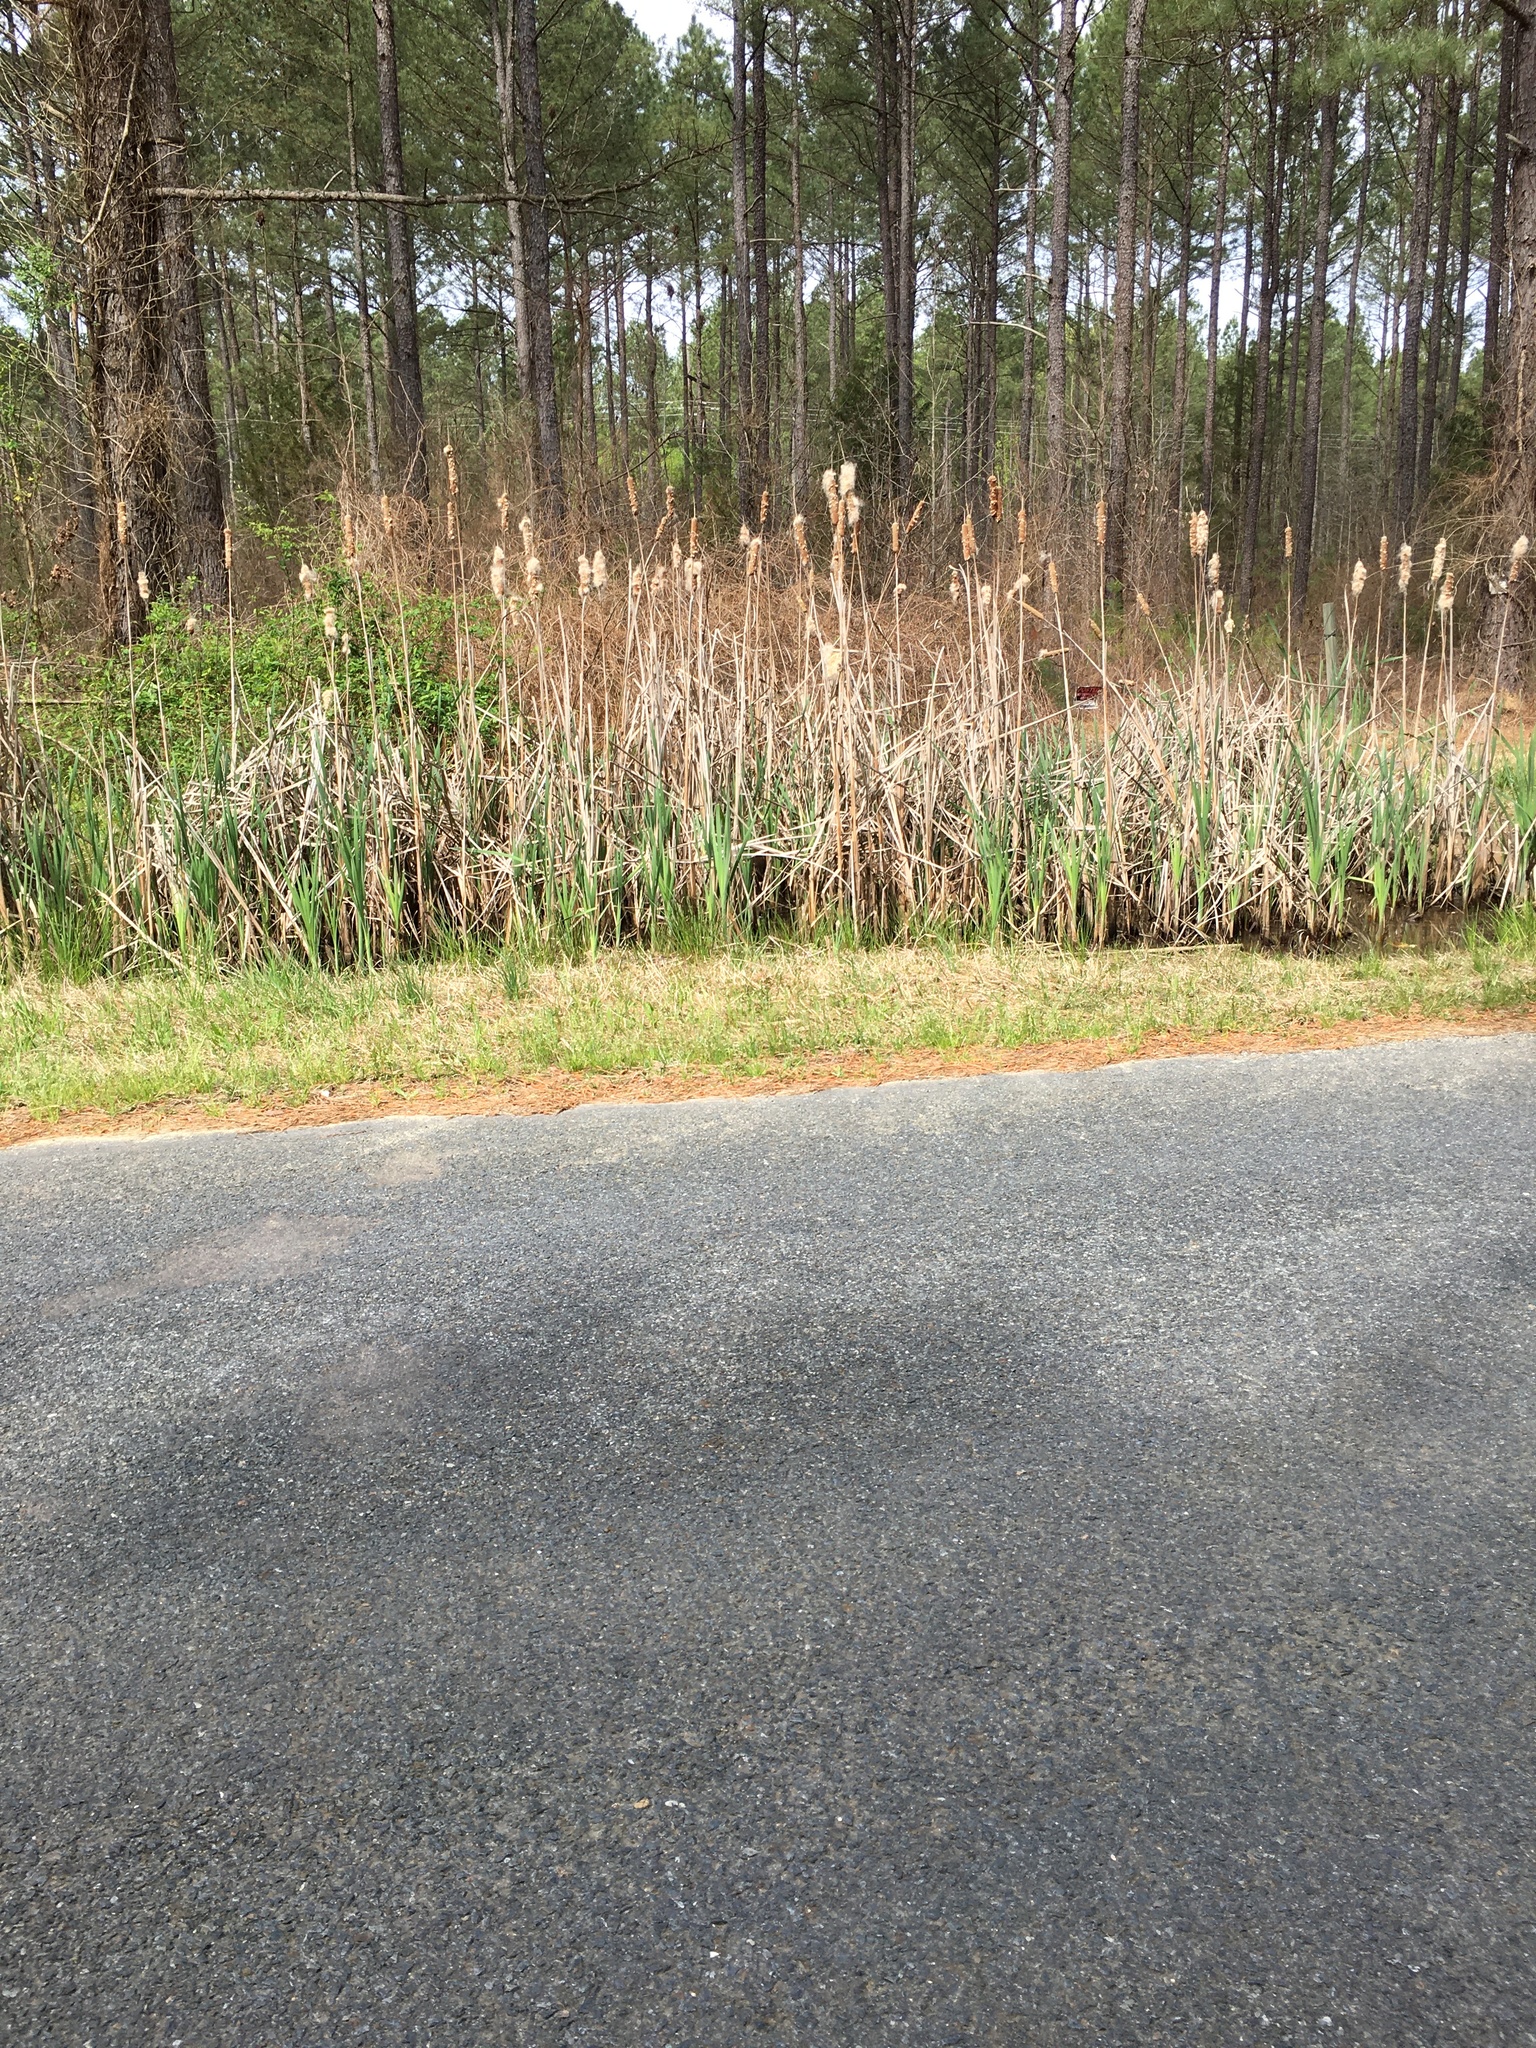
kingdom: Plantae
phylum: Tracheophyta
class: Liliopsida
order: Poales
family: Typhaceae
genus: Typha
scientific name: Typha latifolia
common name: Broadleaf cattail
